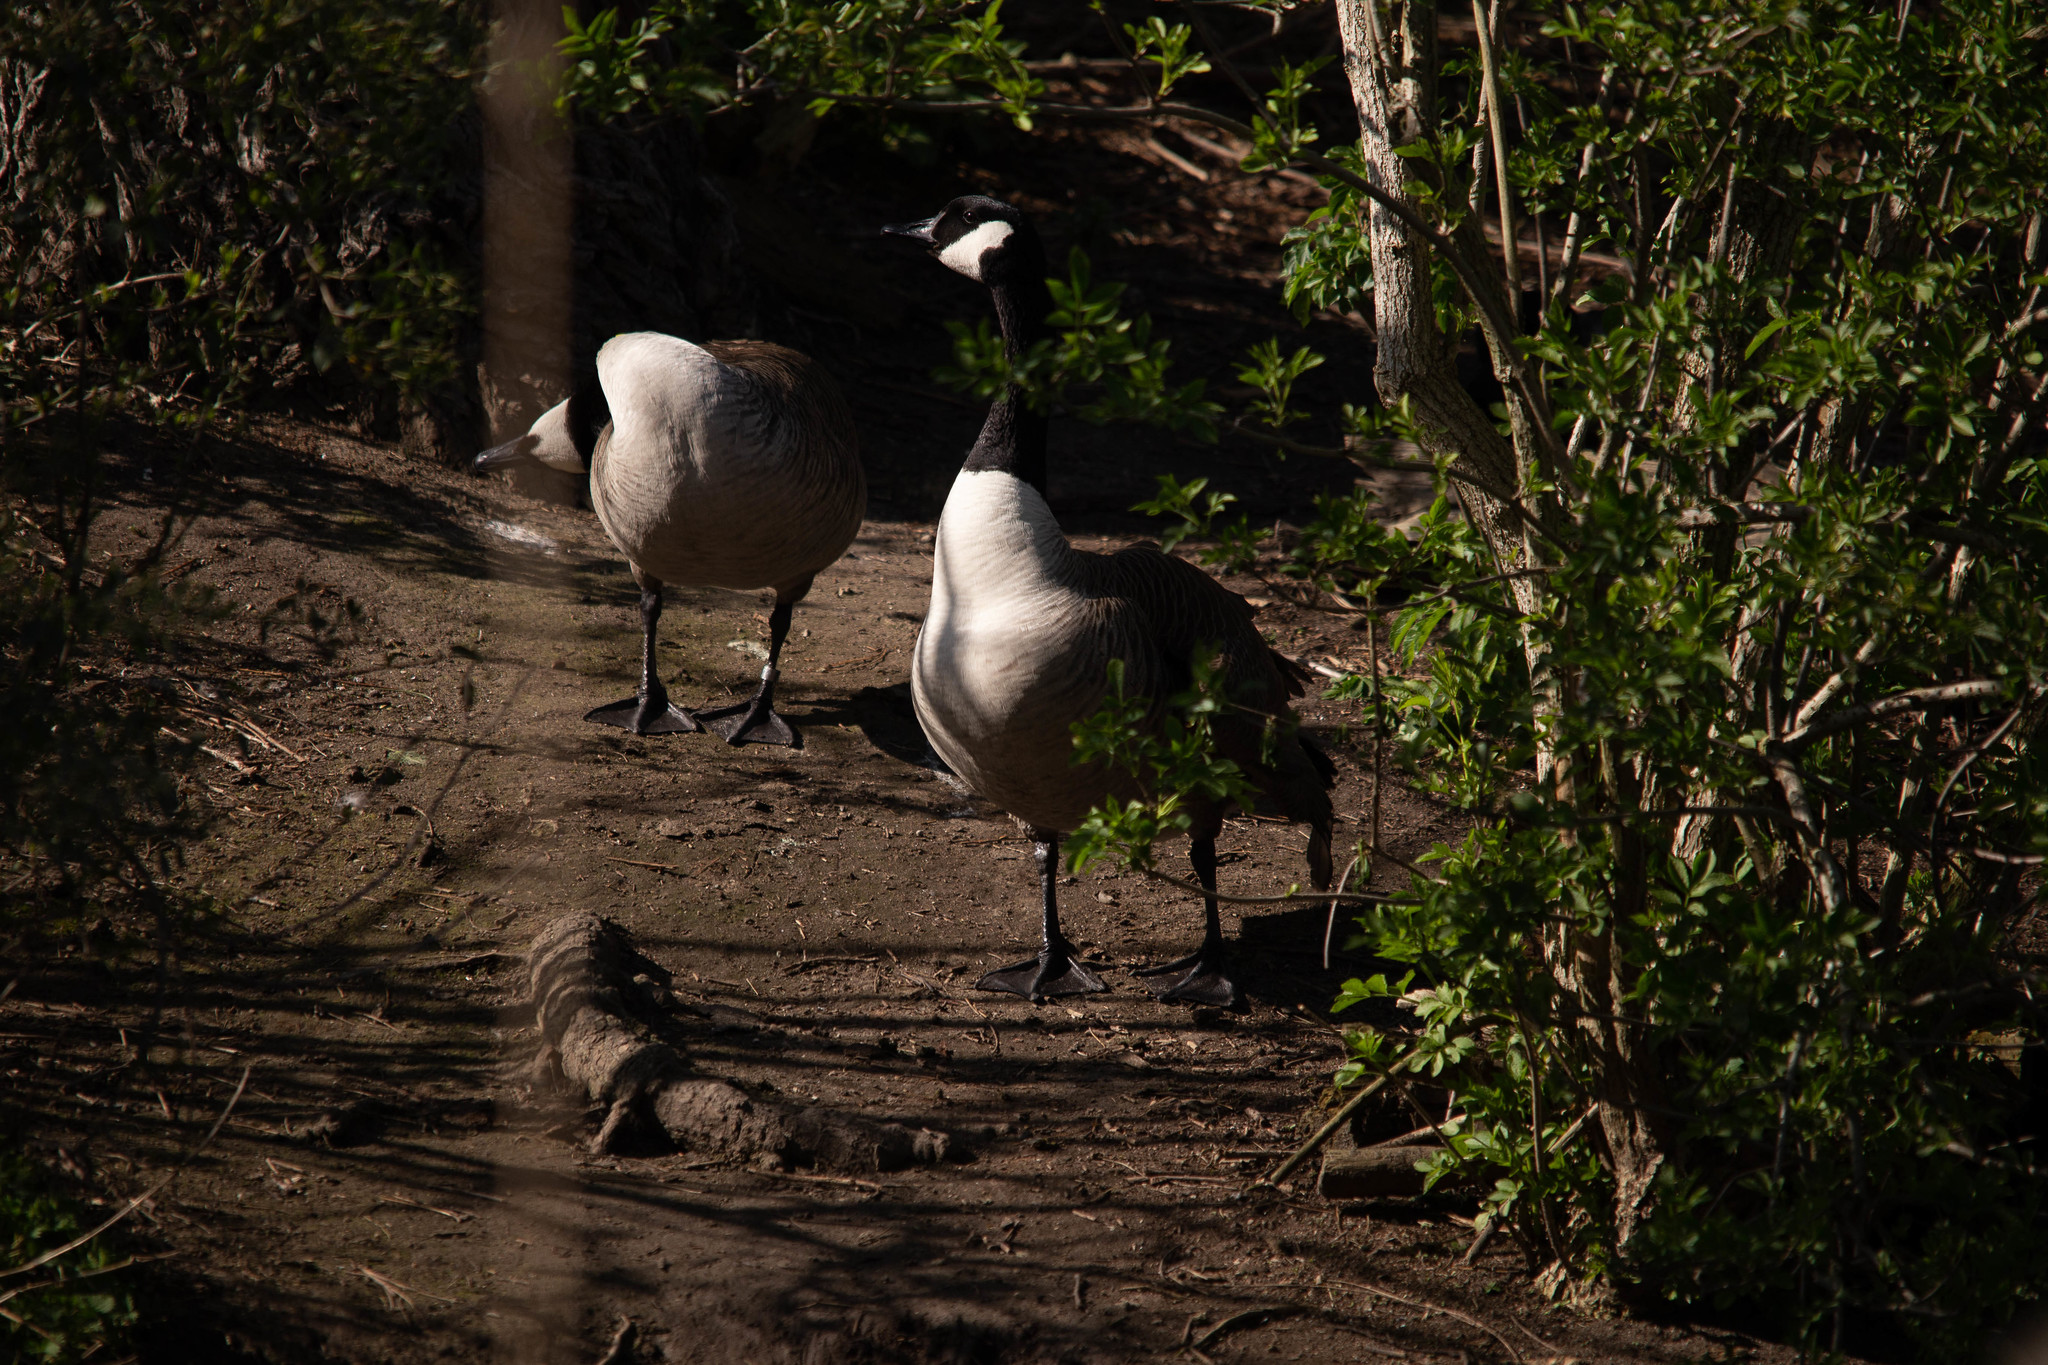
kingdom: Animalia
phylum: Chordata
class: Aves
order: Anseriformes
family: Anatidae
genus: Branta
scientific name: Branta canadensis
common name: Canada goose
